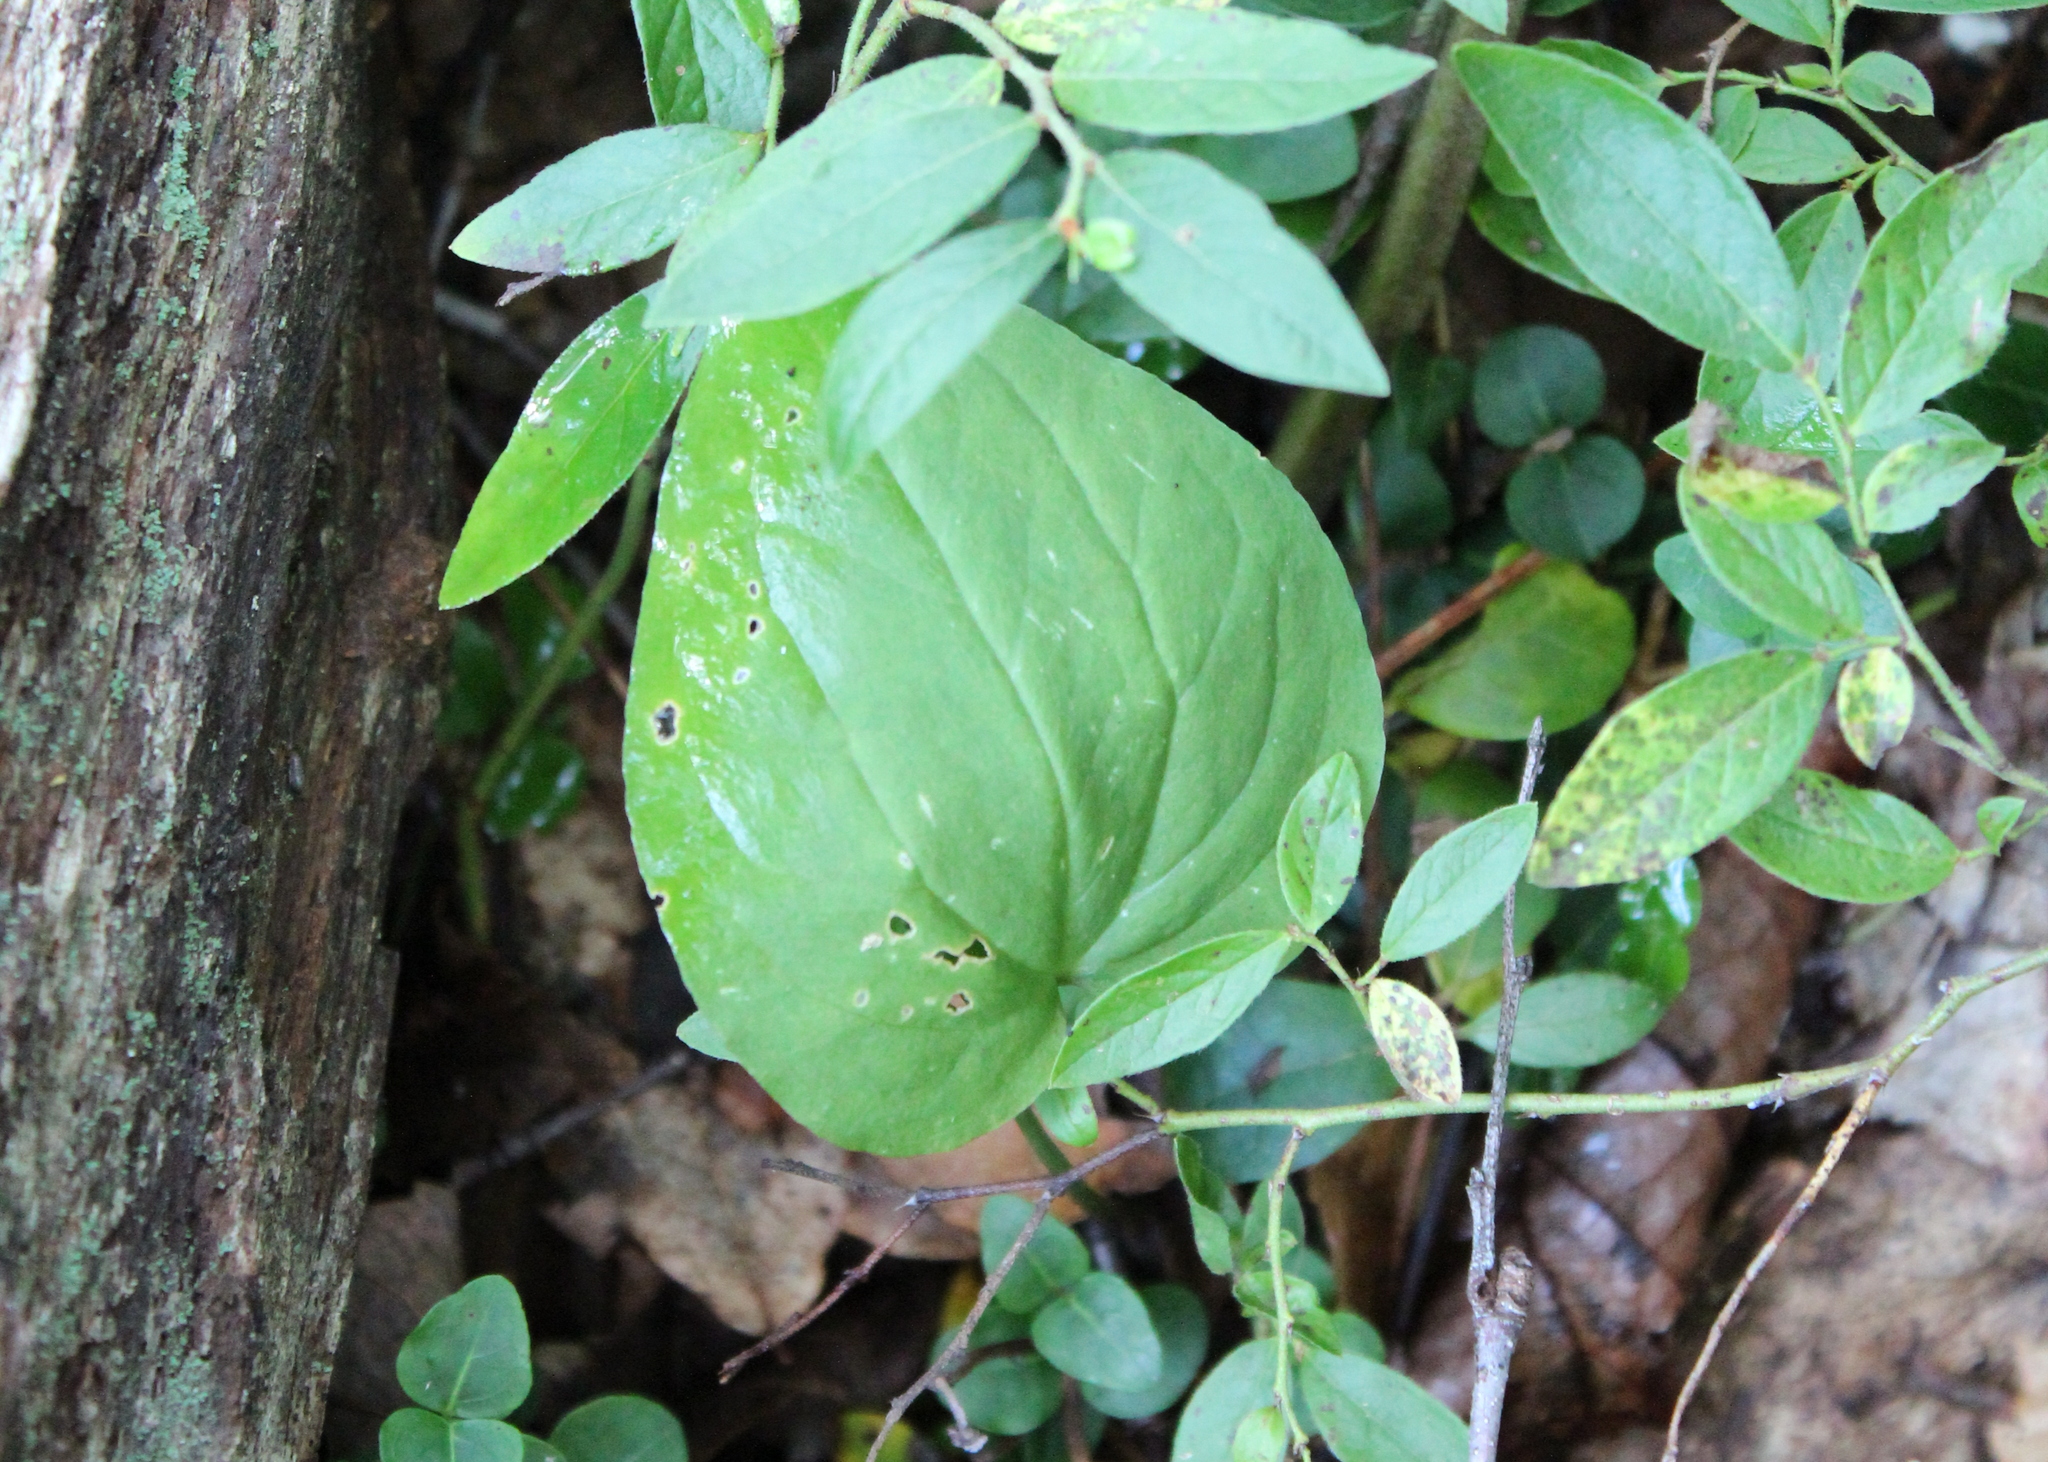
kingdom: Plantae
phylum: Tracheophyta
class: Liliopsida
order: Liliales
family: Melanthiaceae
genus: Trillium
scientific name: Trillium undulatum
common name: Paint trillium
